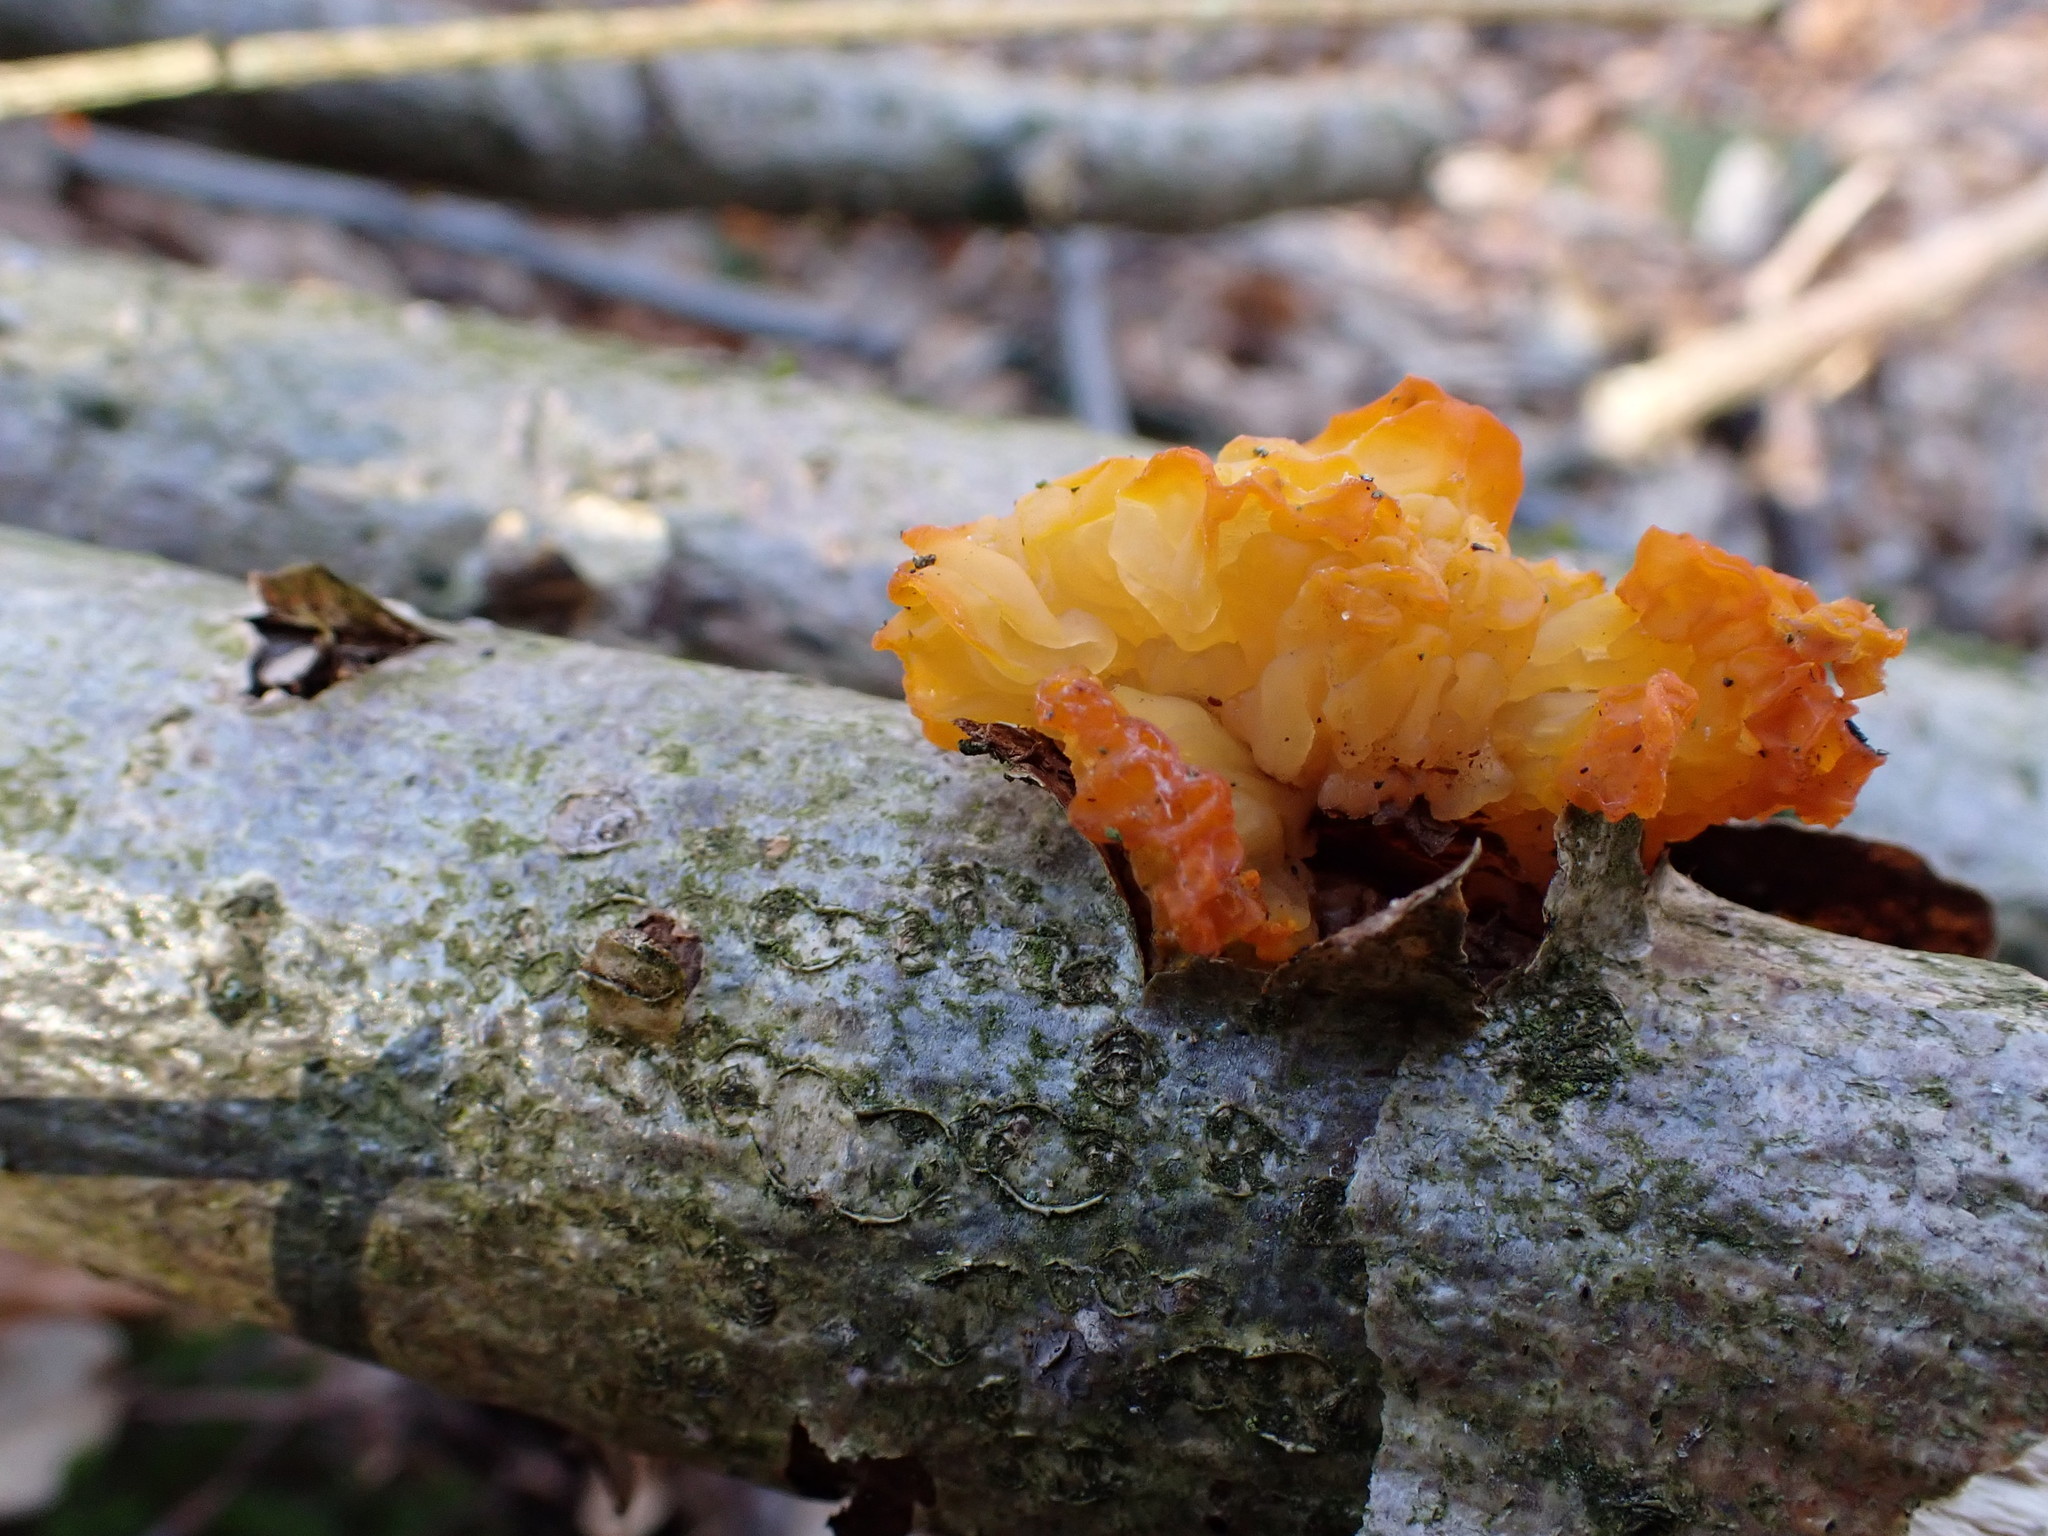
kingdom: Fungi
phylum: Basidiomycota
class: Tremellomycetes
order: Tremellales
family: Tremellaceae
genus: Tremella
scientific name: Tremella mesenterica
